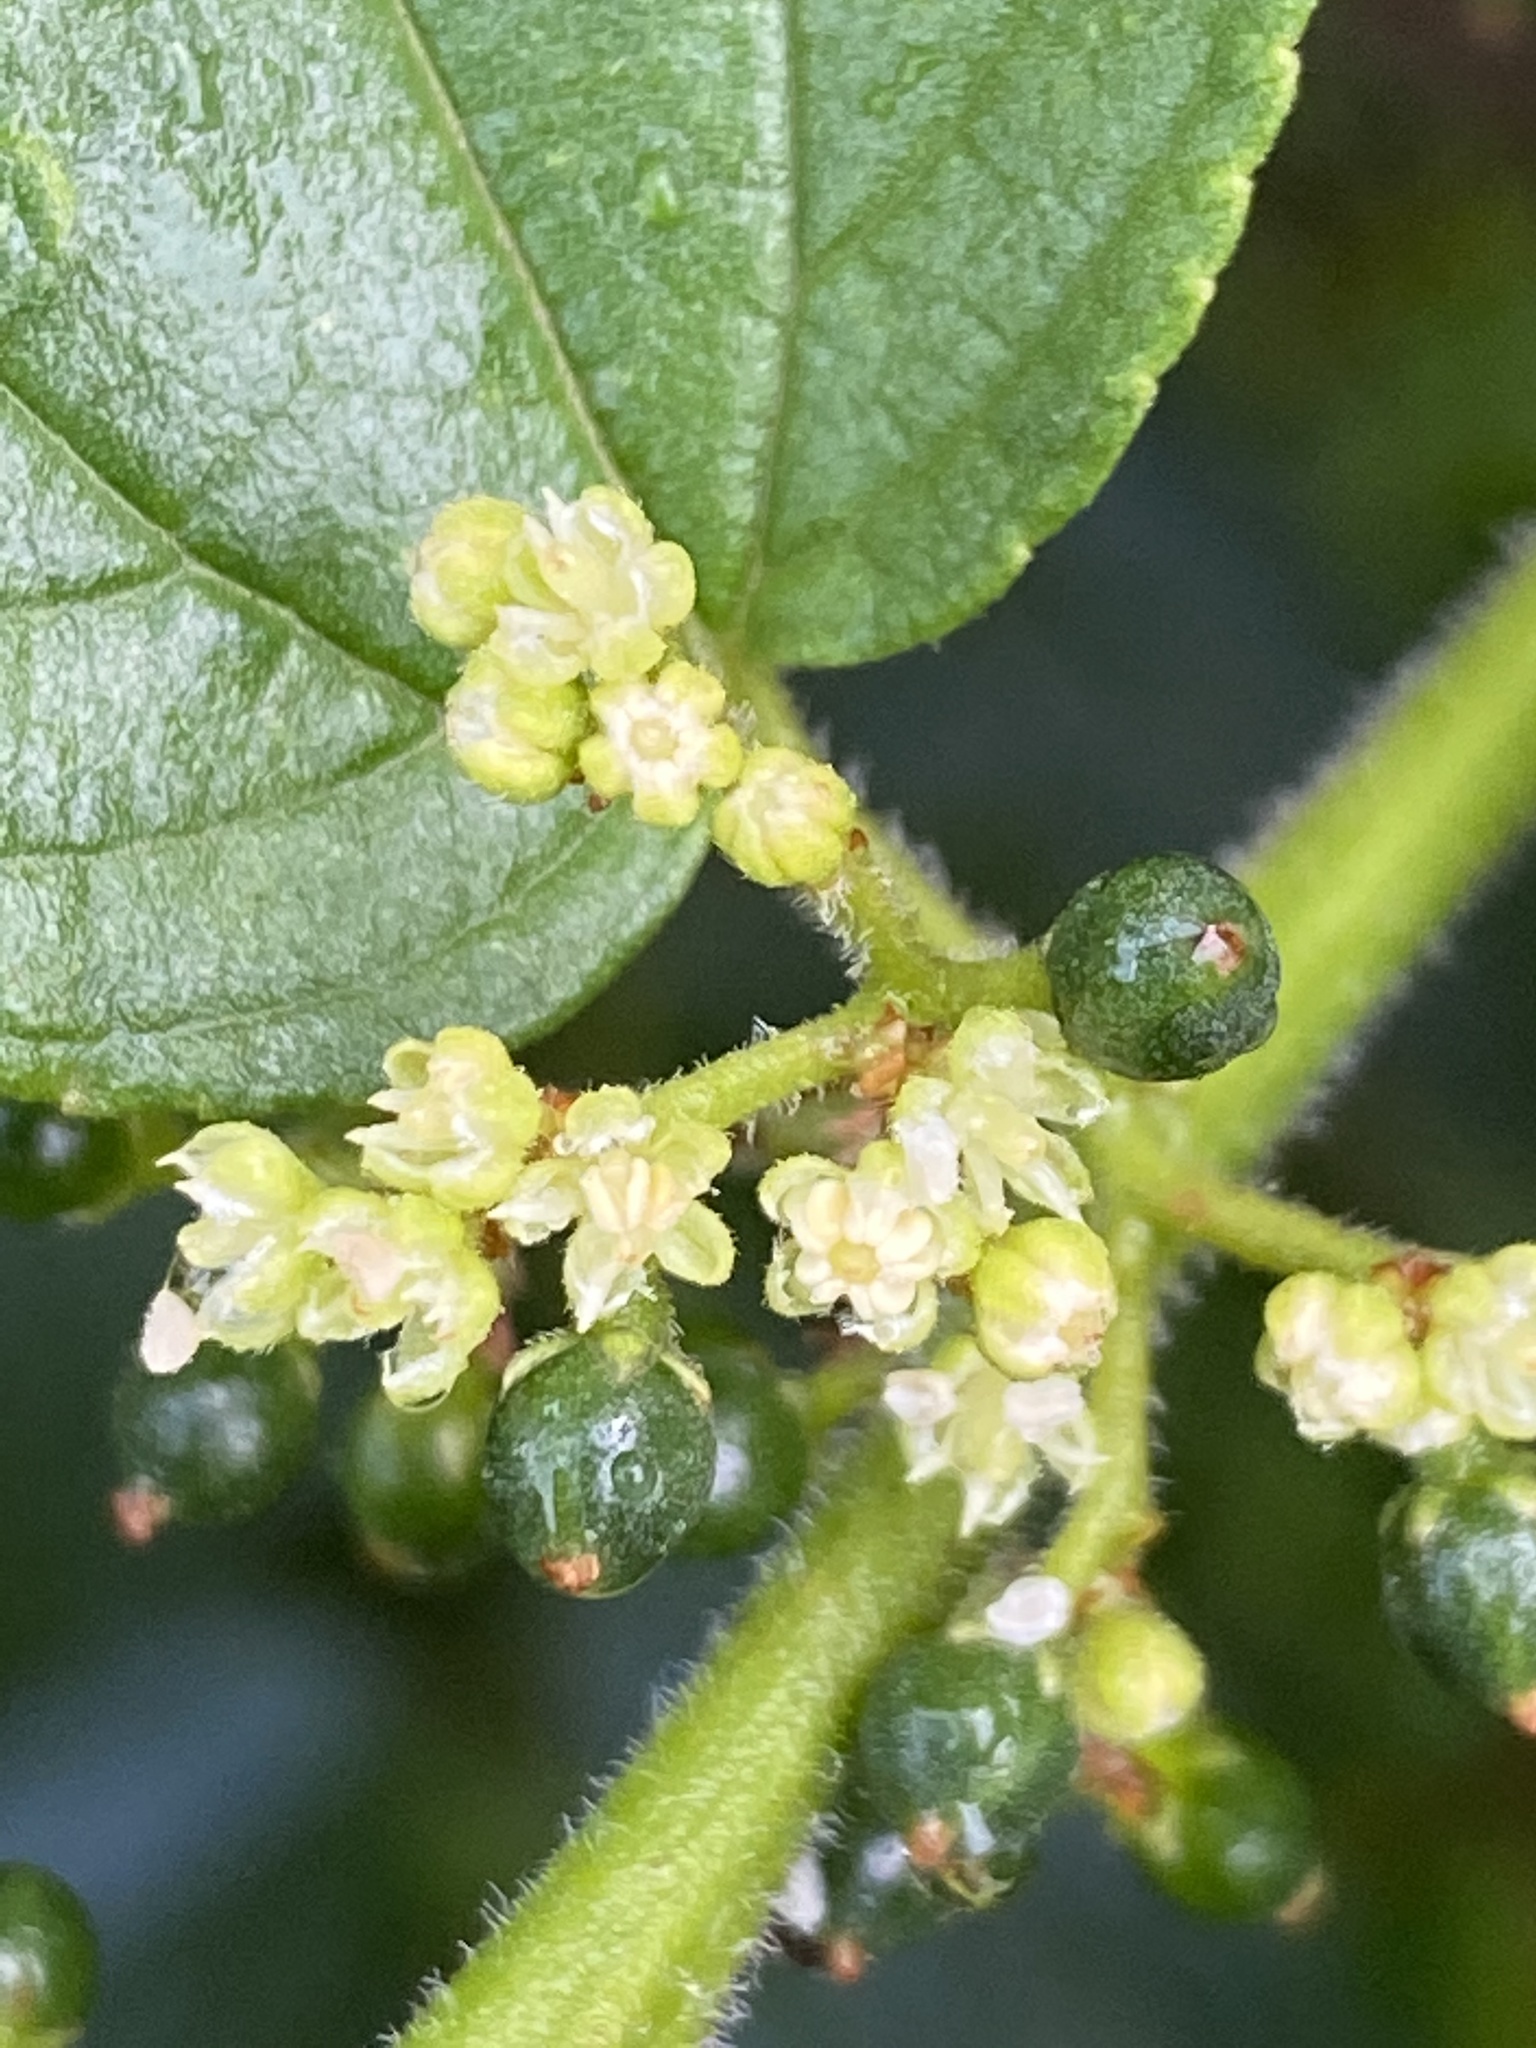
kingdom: Plantae
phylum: Tracheophyta
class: Magnoliopsida
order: Rosales
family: Cannabaceae
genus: Trema
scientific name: Trema micranthum
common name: Jamaican nettletree
